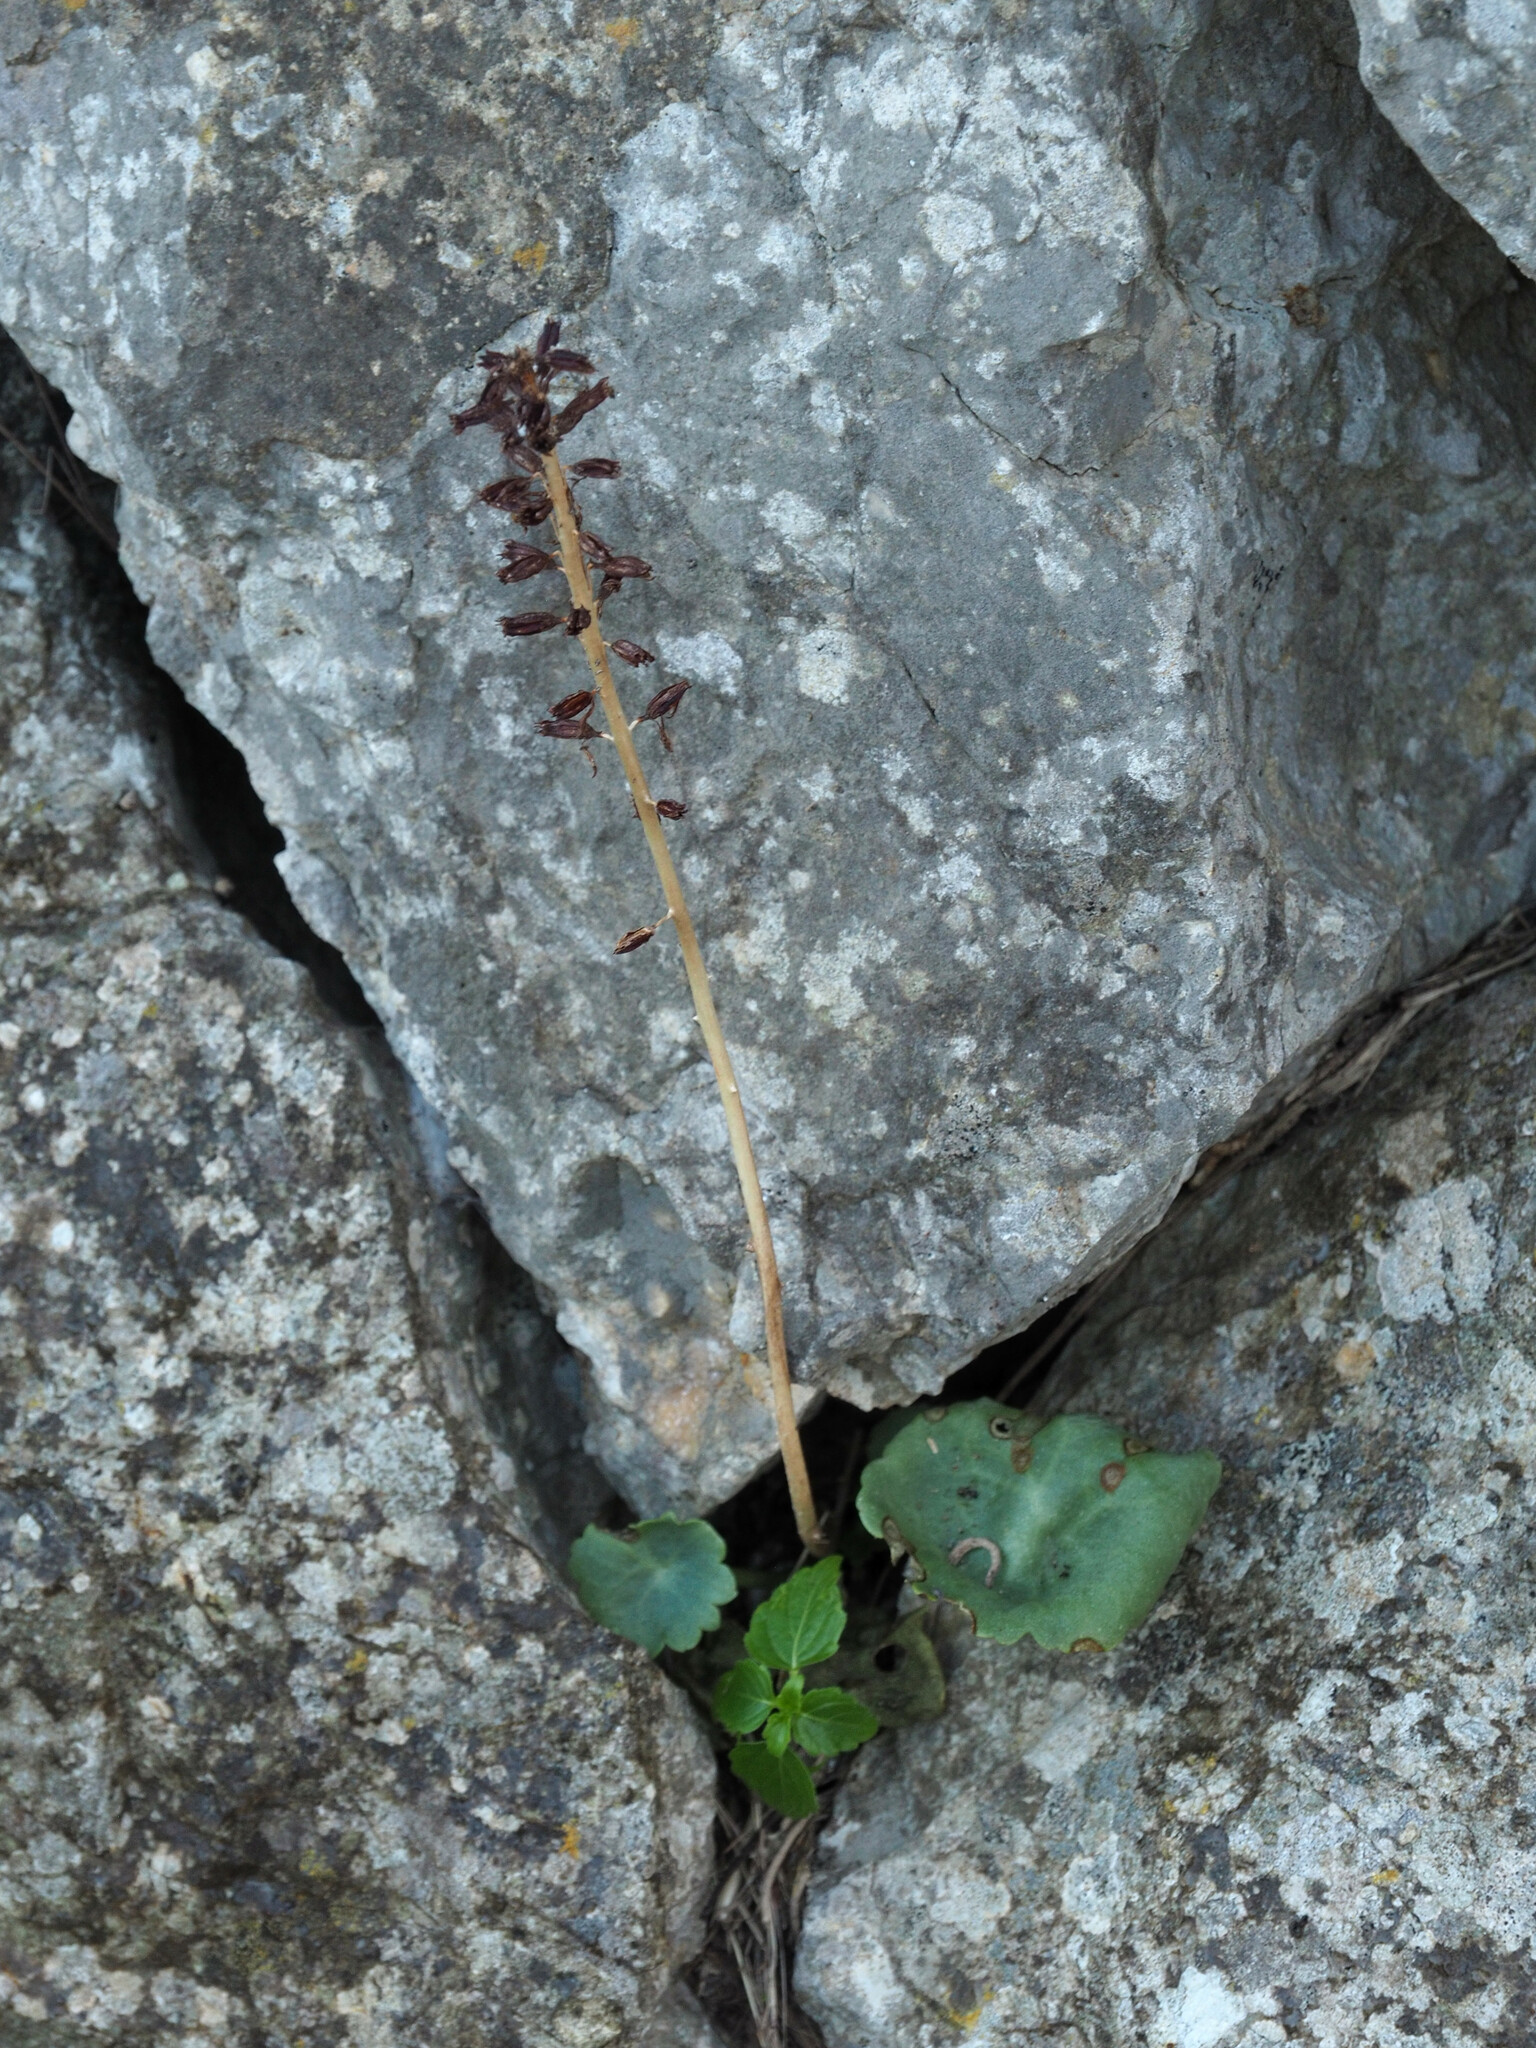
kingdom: Plantae
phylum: Tracheophyta
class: Magnoliopsida
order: Saxifragales
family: Crassulaceae
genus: Umbilicus
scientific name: Umbilicus rupestris
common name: Navelwort
